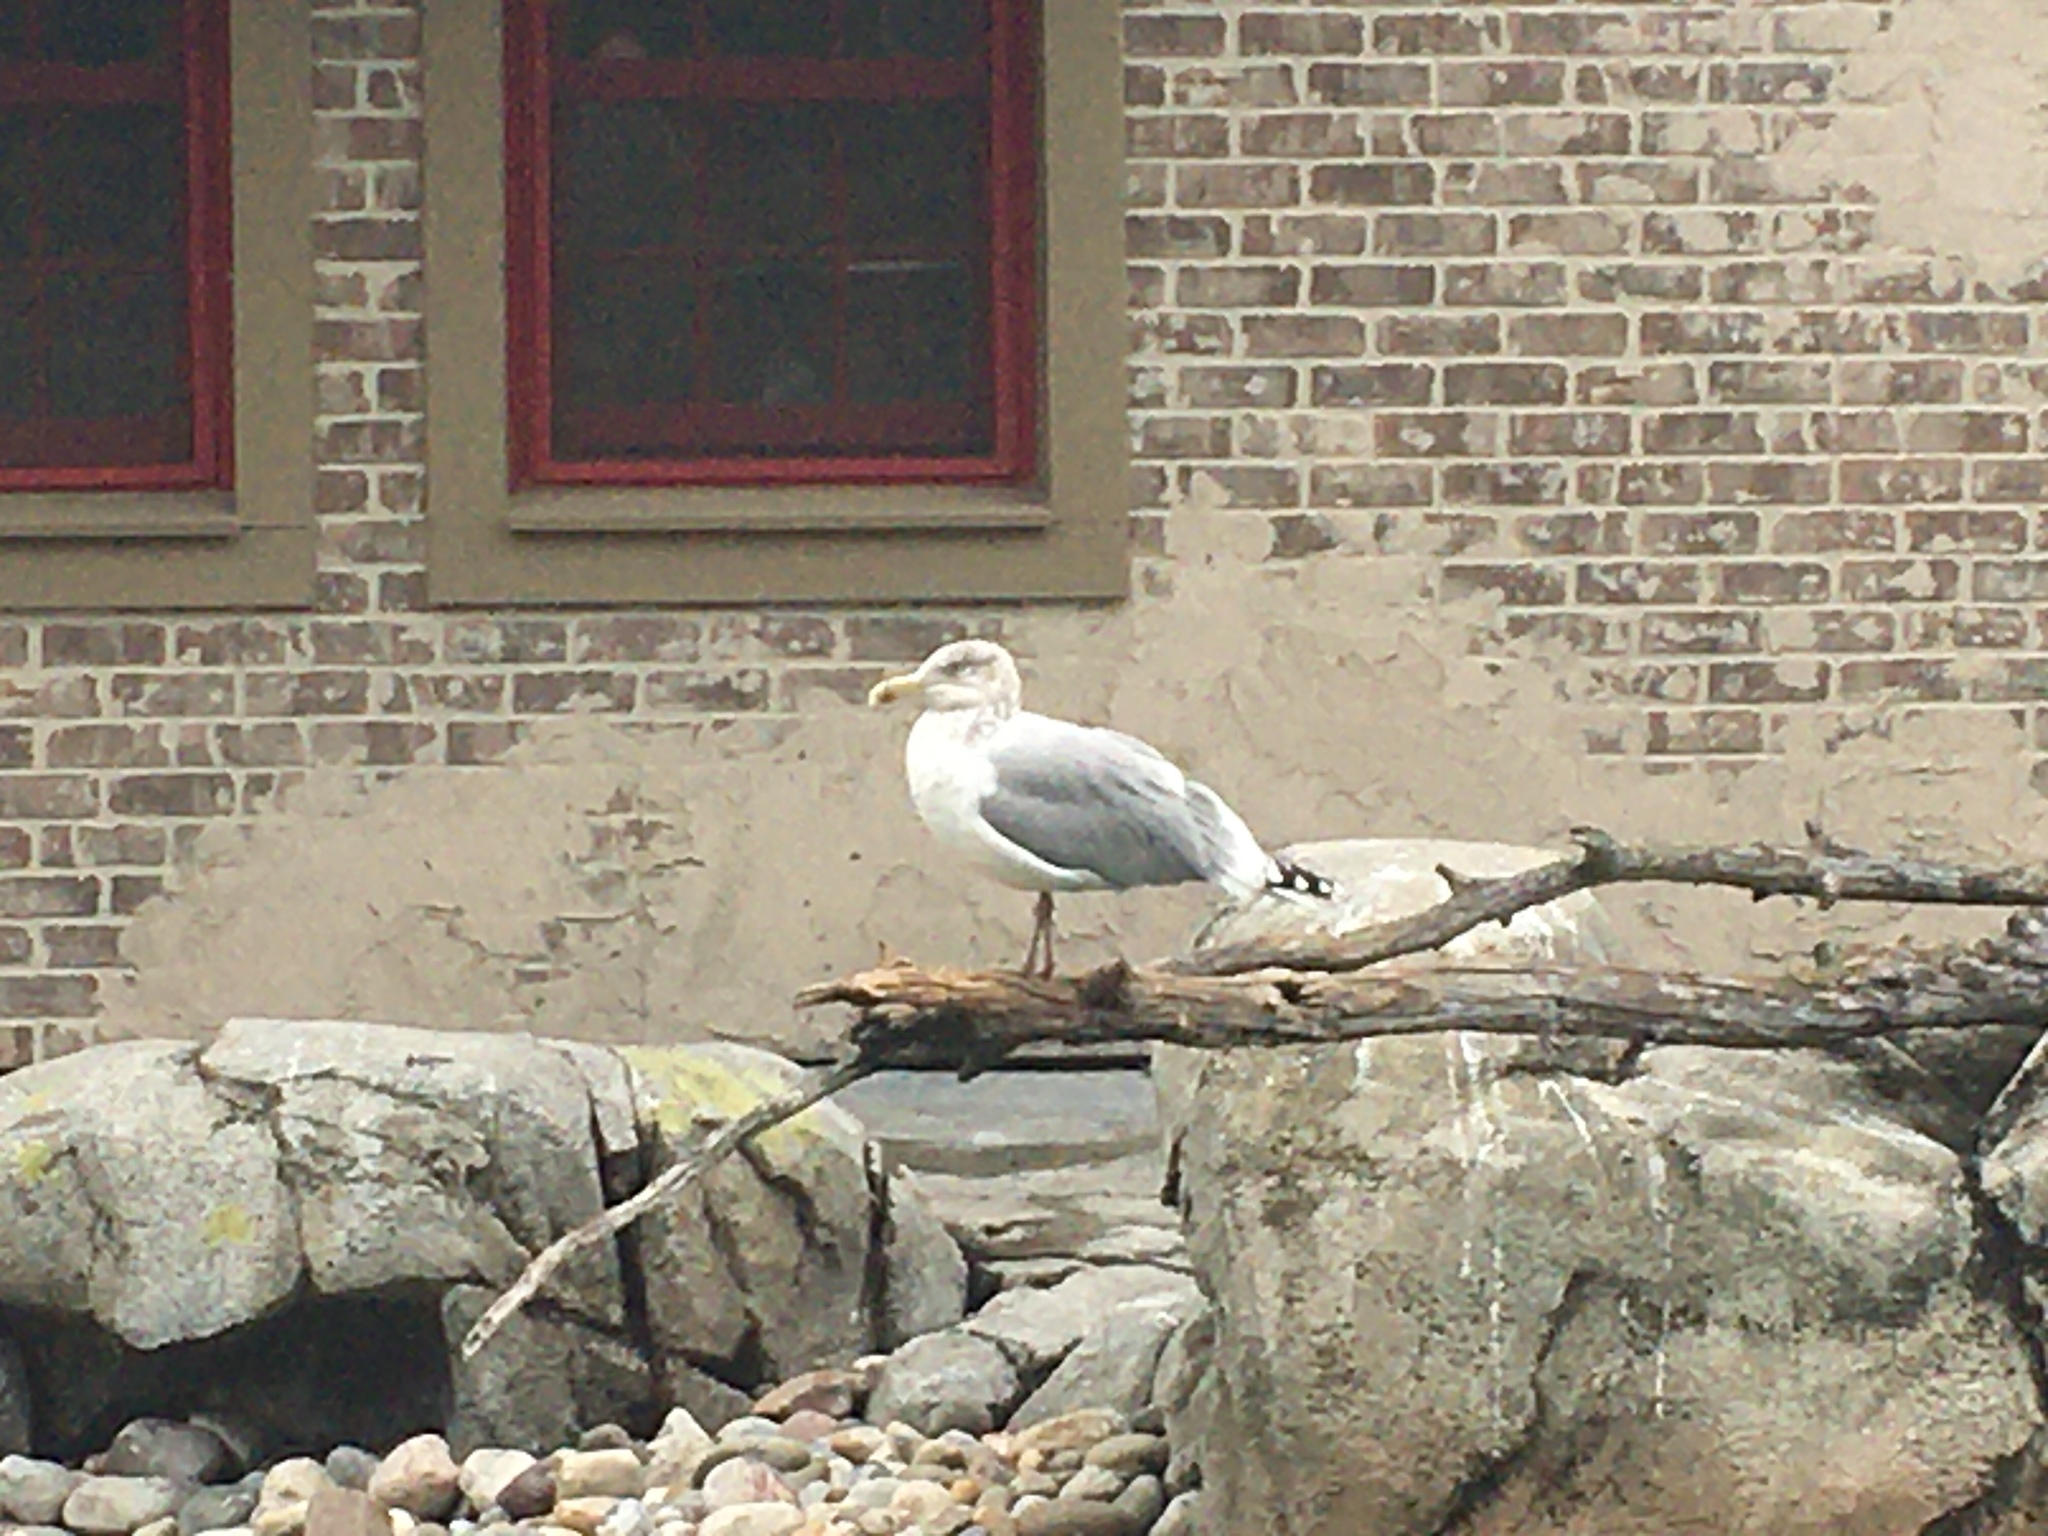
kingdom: Animalia
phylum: Chordata
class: Aves
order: Charadriiformes
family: Laridae
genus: Larus
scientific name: Larus argentatus
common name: Herring gull
